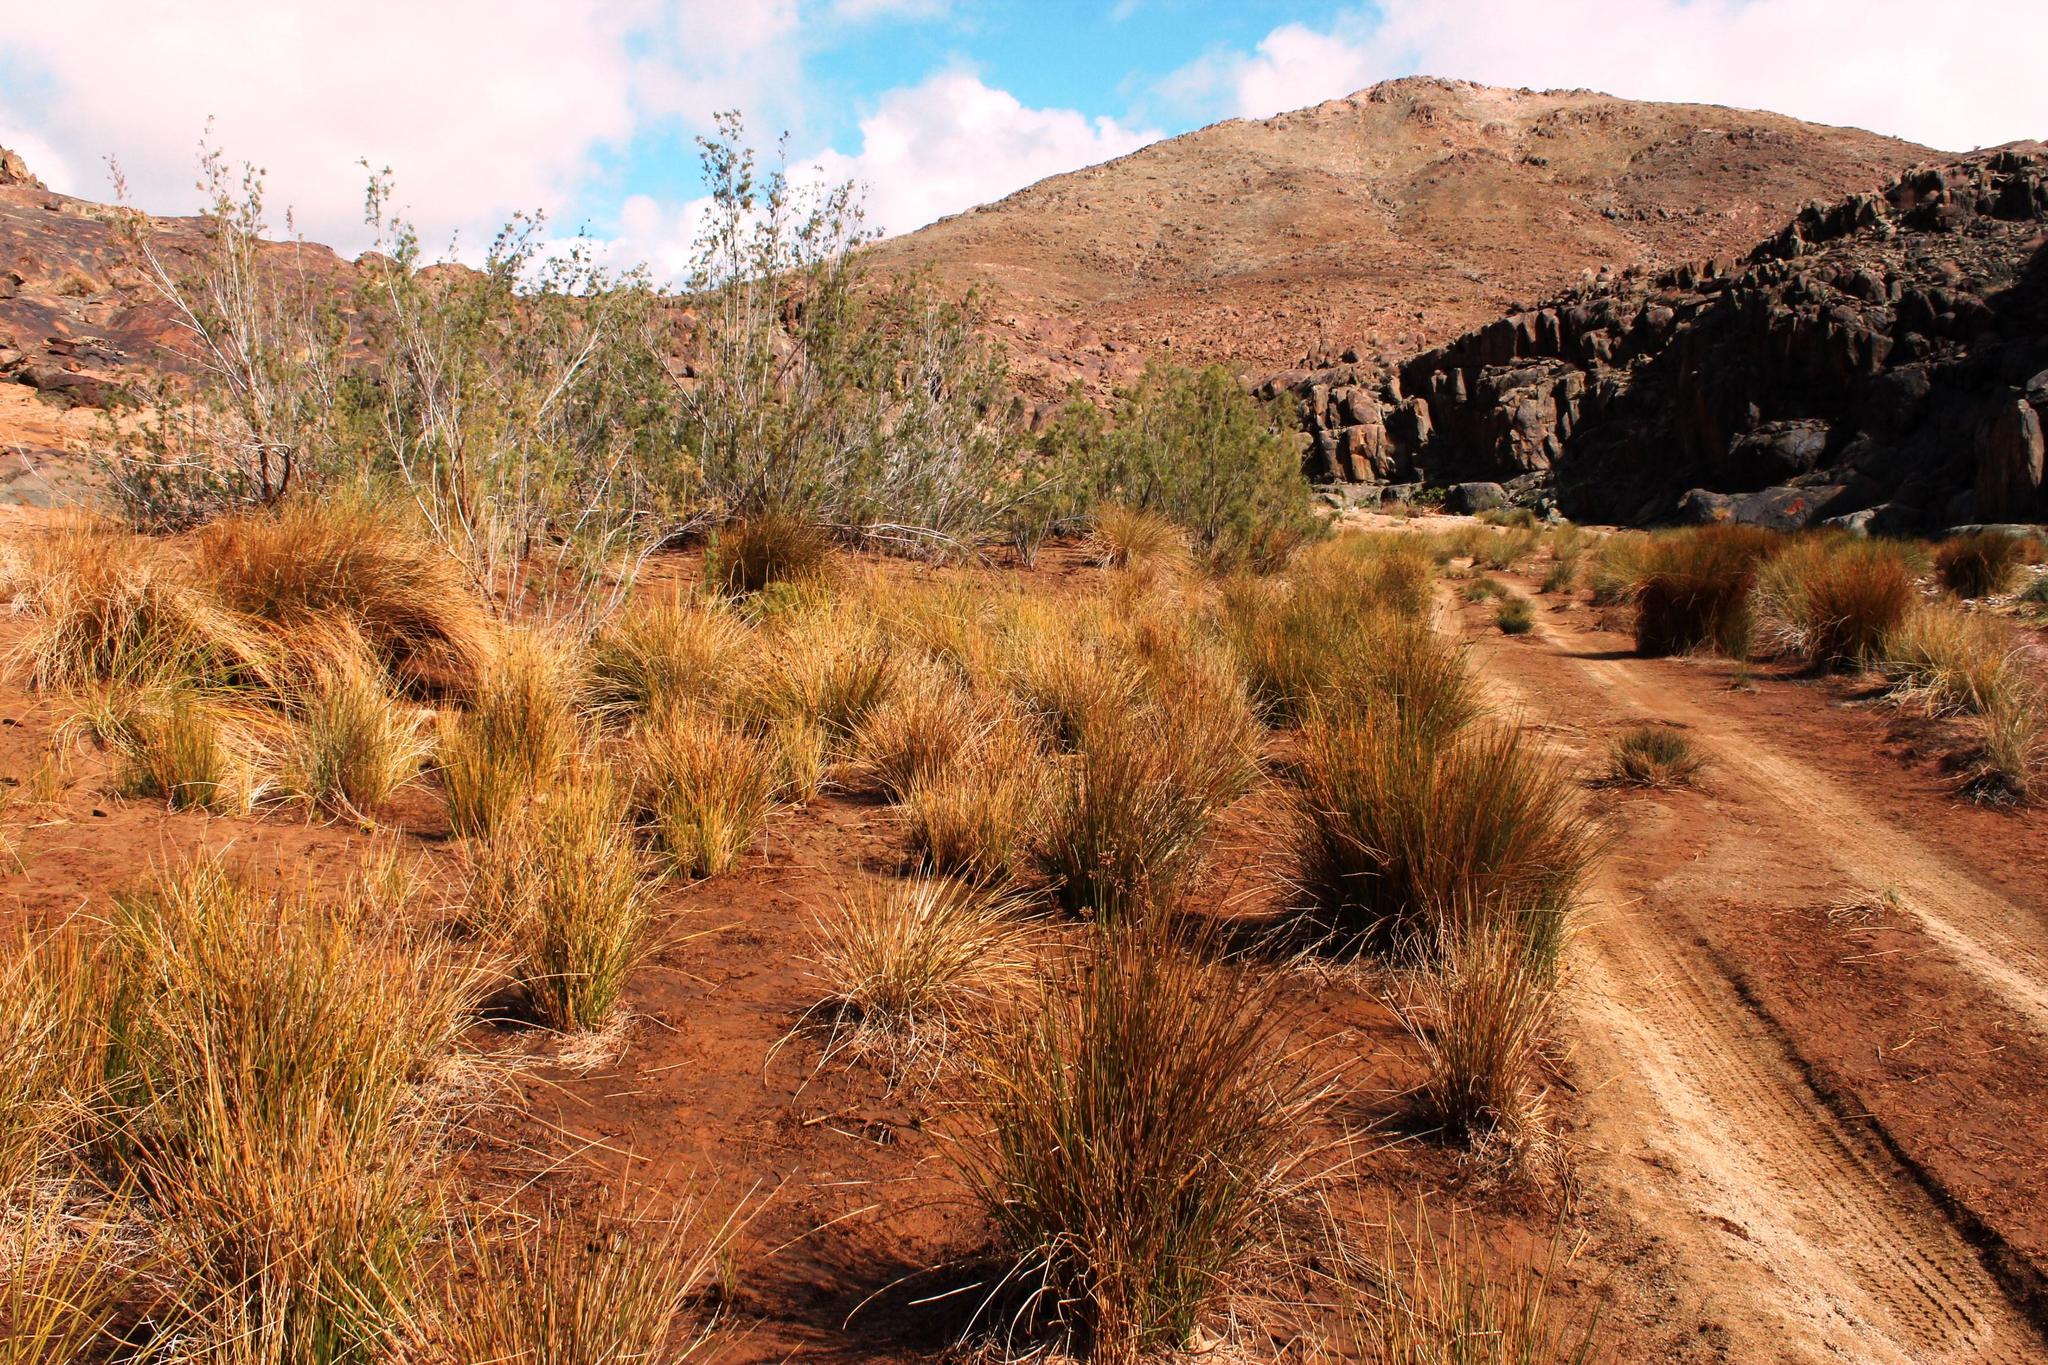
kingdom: Plantae
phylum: Tracheophyta
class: Magnoliopsida
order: Caryophyllales
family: Tamaricaceae
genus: Tamarix
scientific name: Tamarix usneoides
